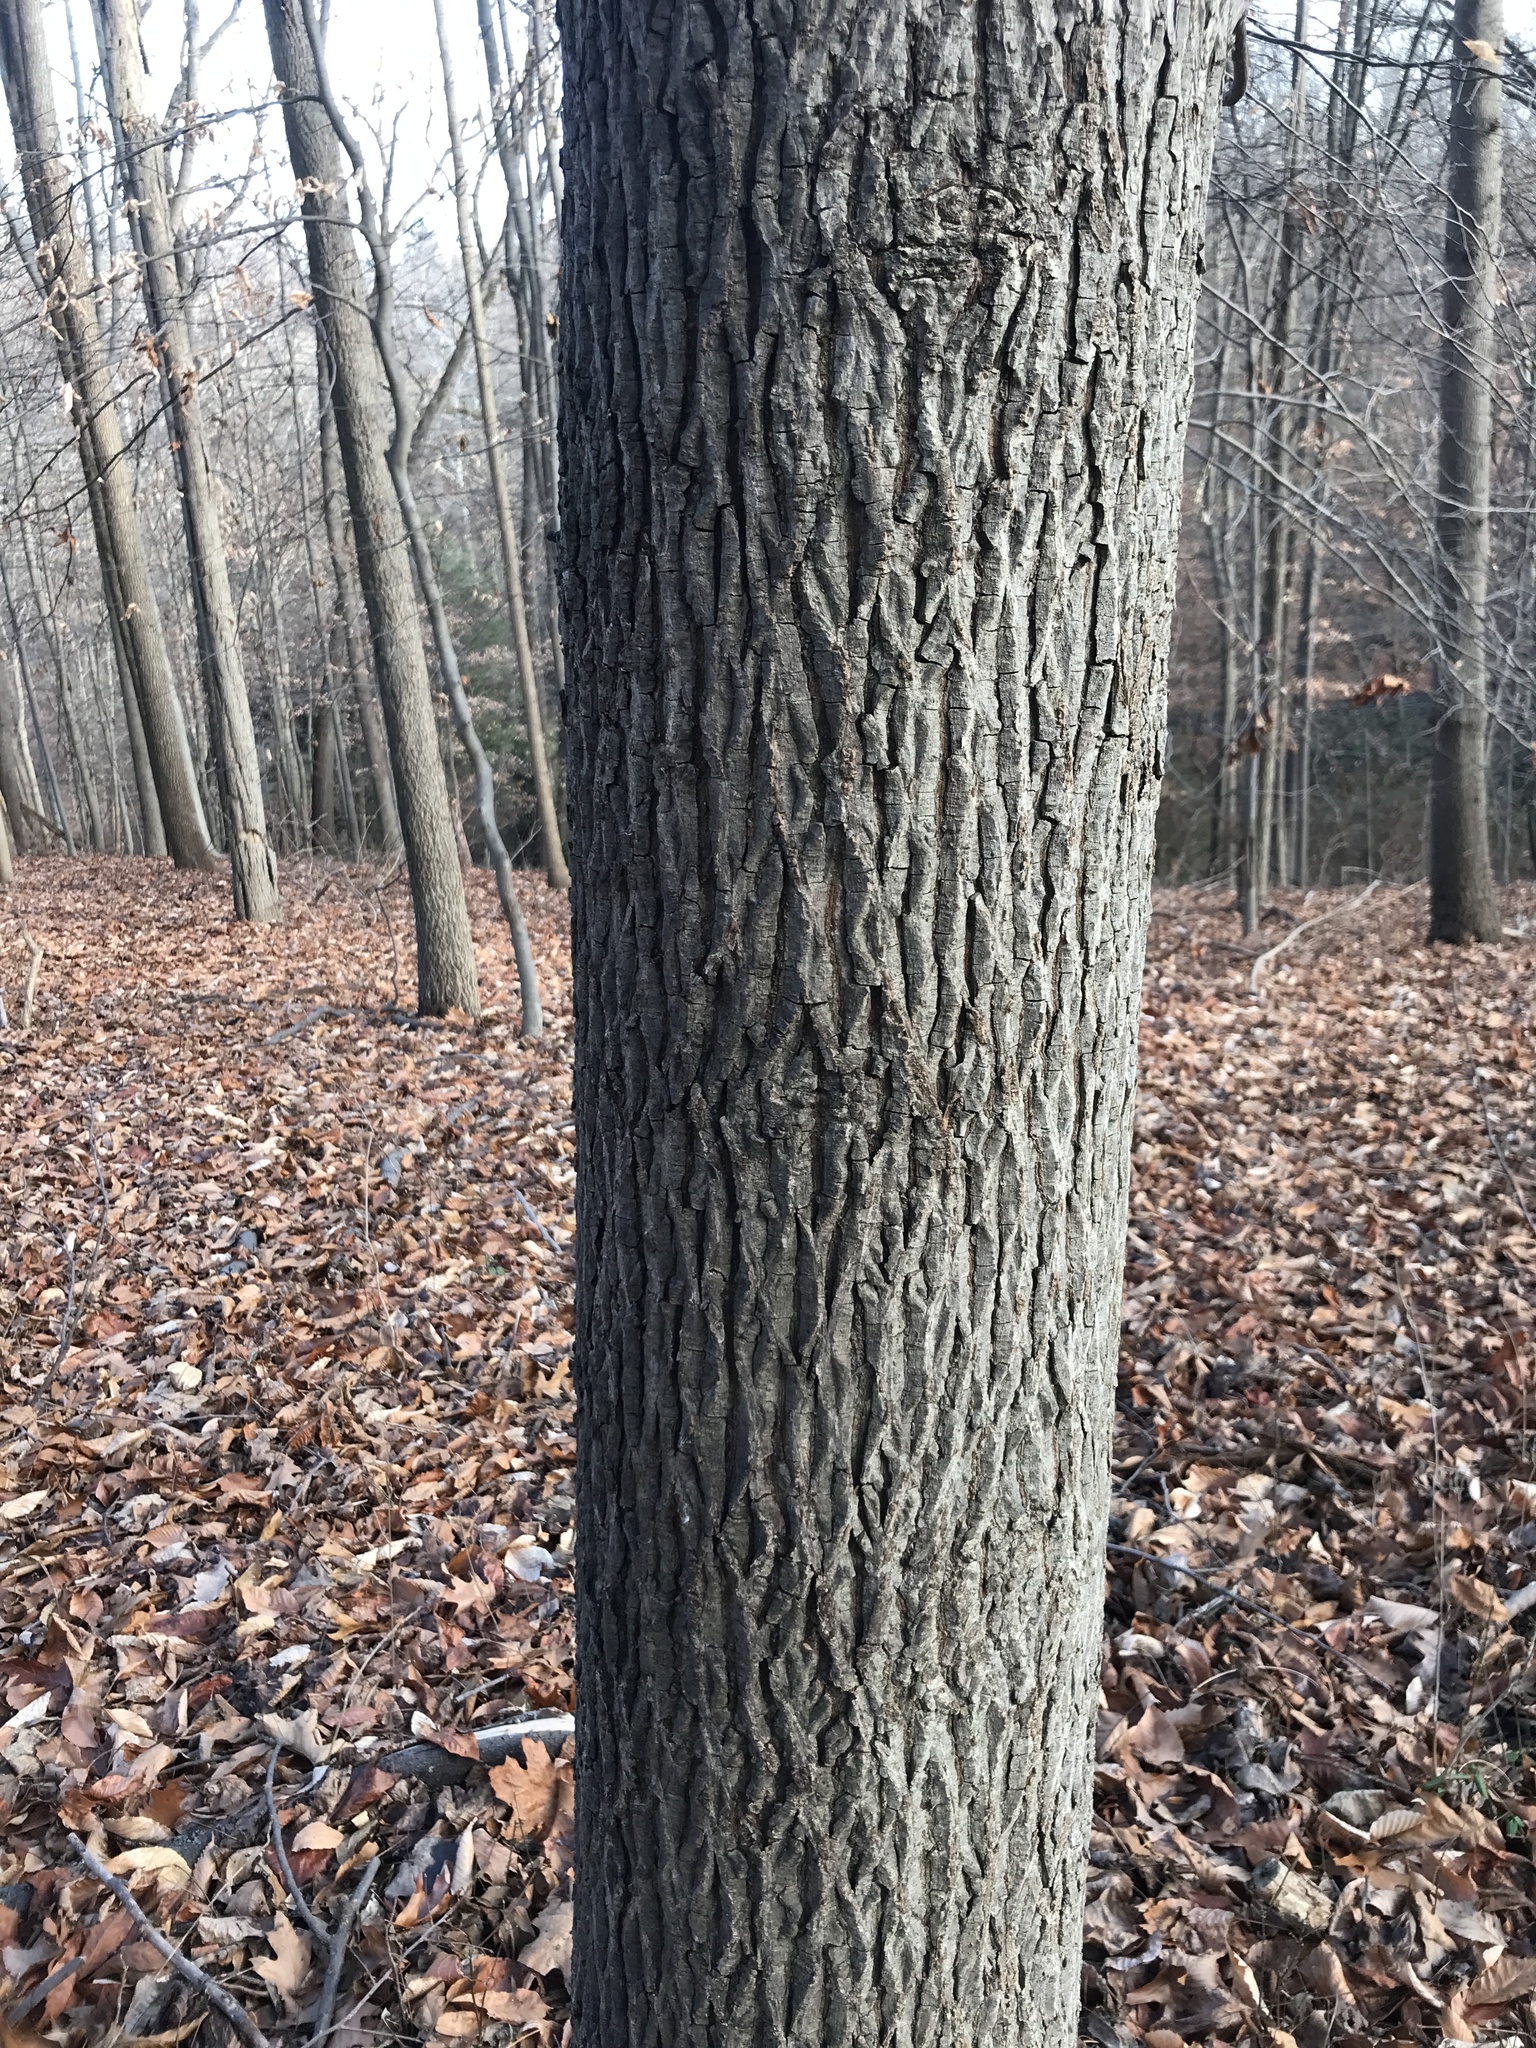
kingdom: Plantae
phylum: Tracheophyta
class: Magnoliopsida
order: Fagales
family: Juglandaceae
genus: Carya
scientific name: Carya glabra
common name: Pignut hickory
